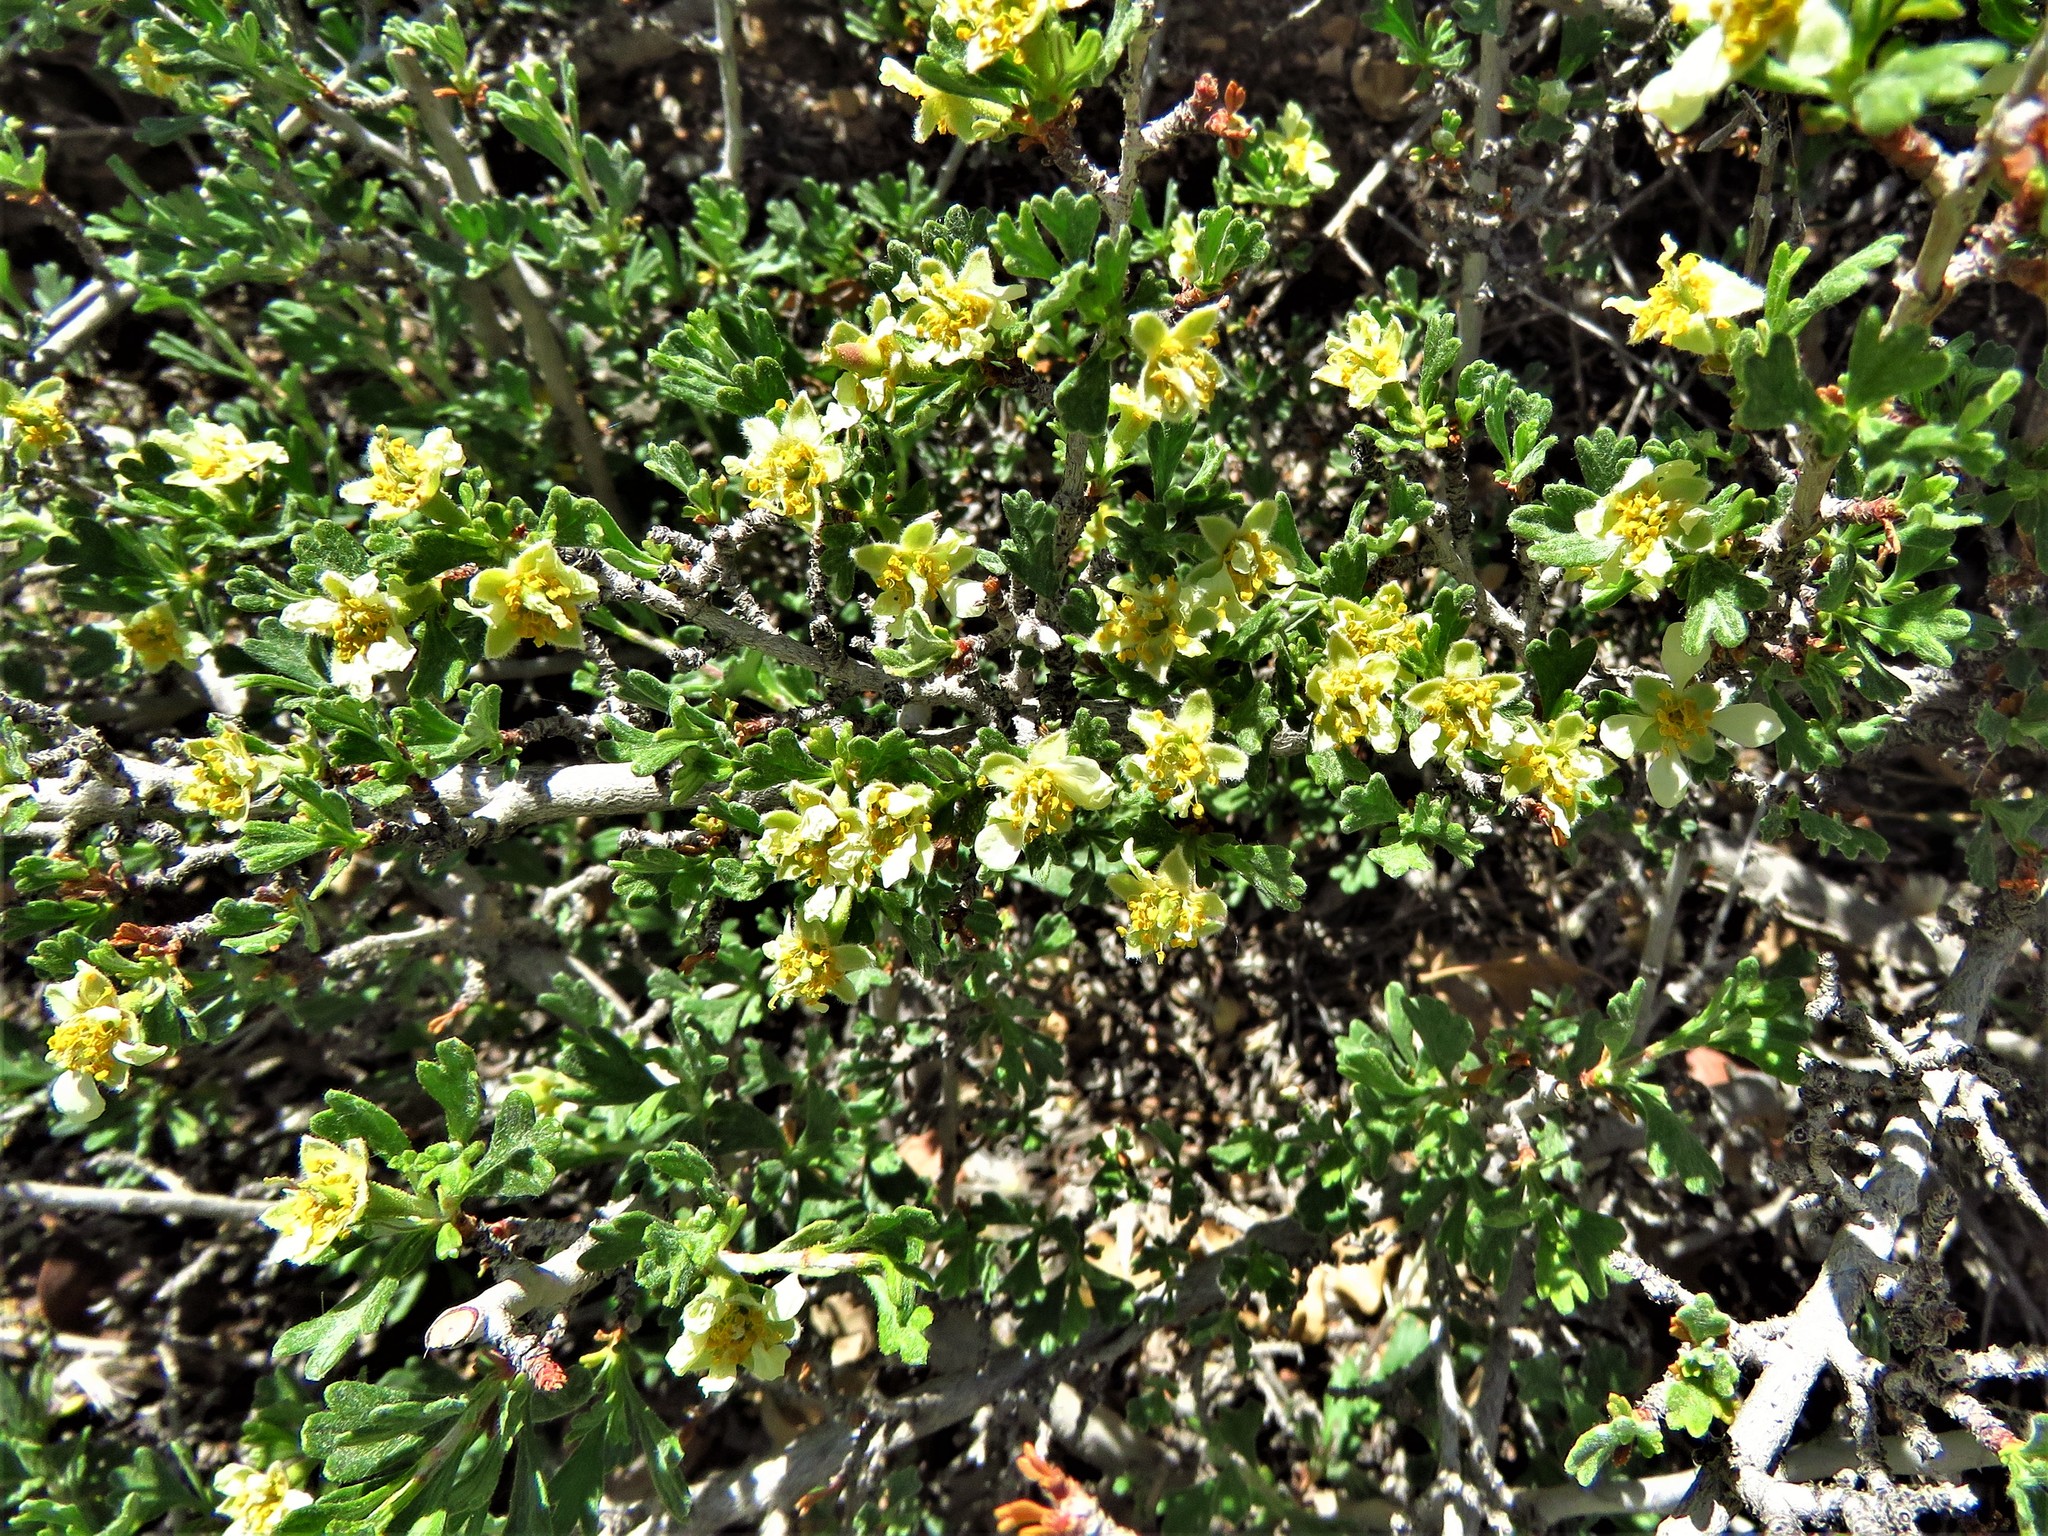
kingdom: Plantae
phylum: Tracheophyta
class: Magnoliopsida
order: Rosales
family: Rosaceae
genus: Purshia
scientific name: Purshia tridentata
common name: Antelope bitterbrush
